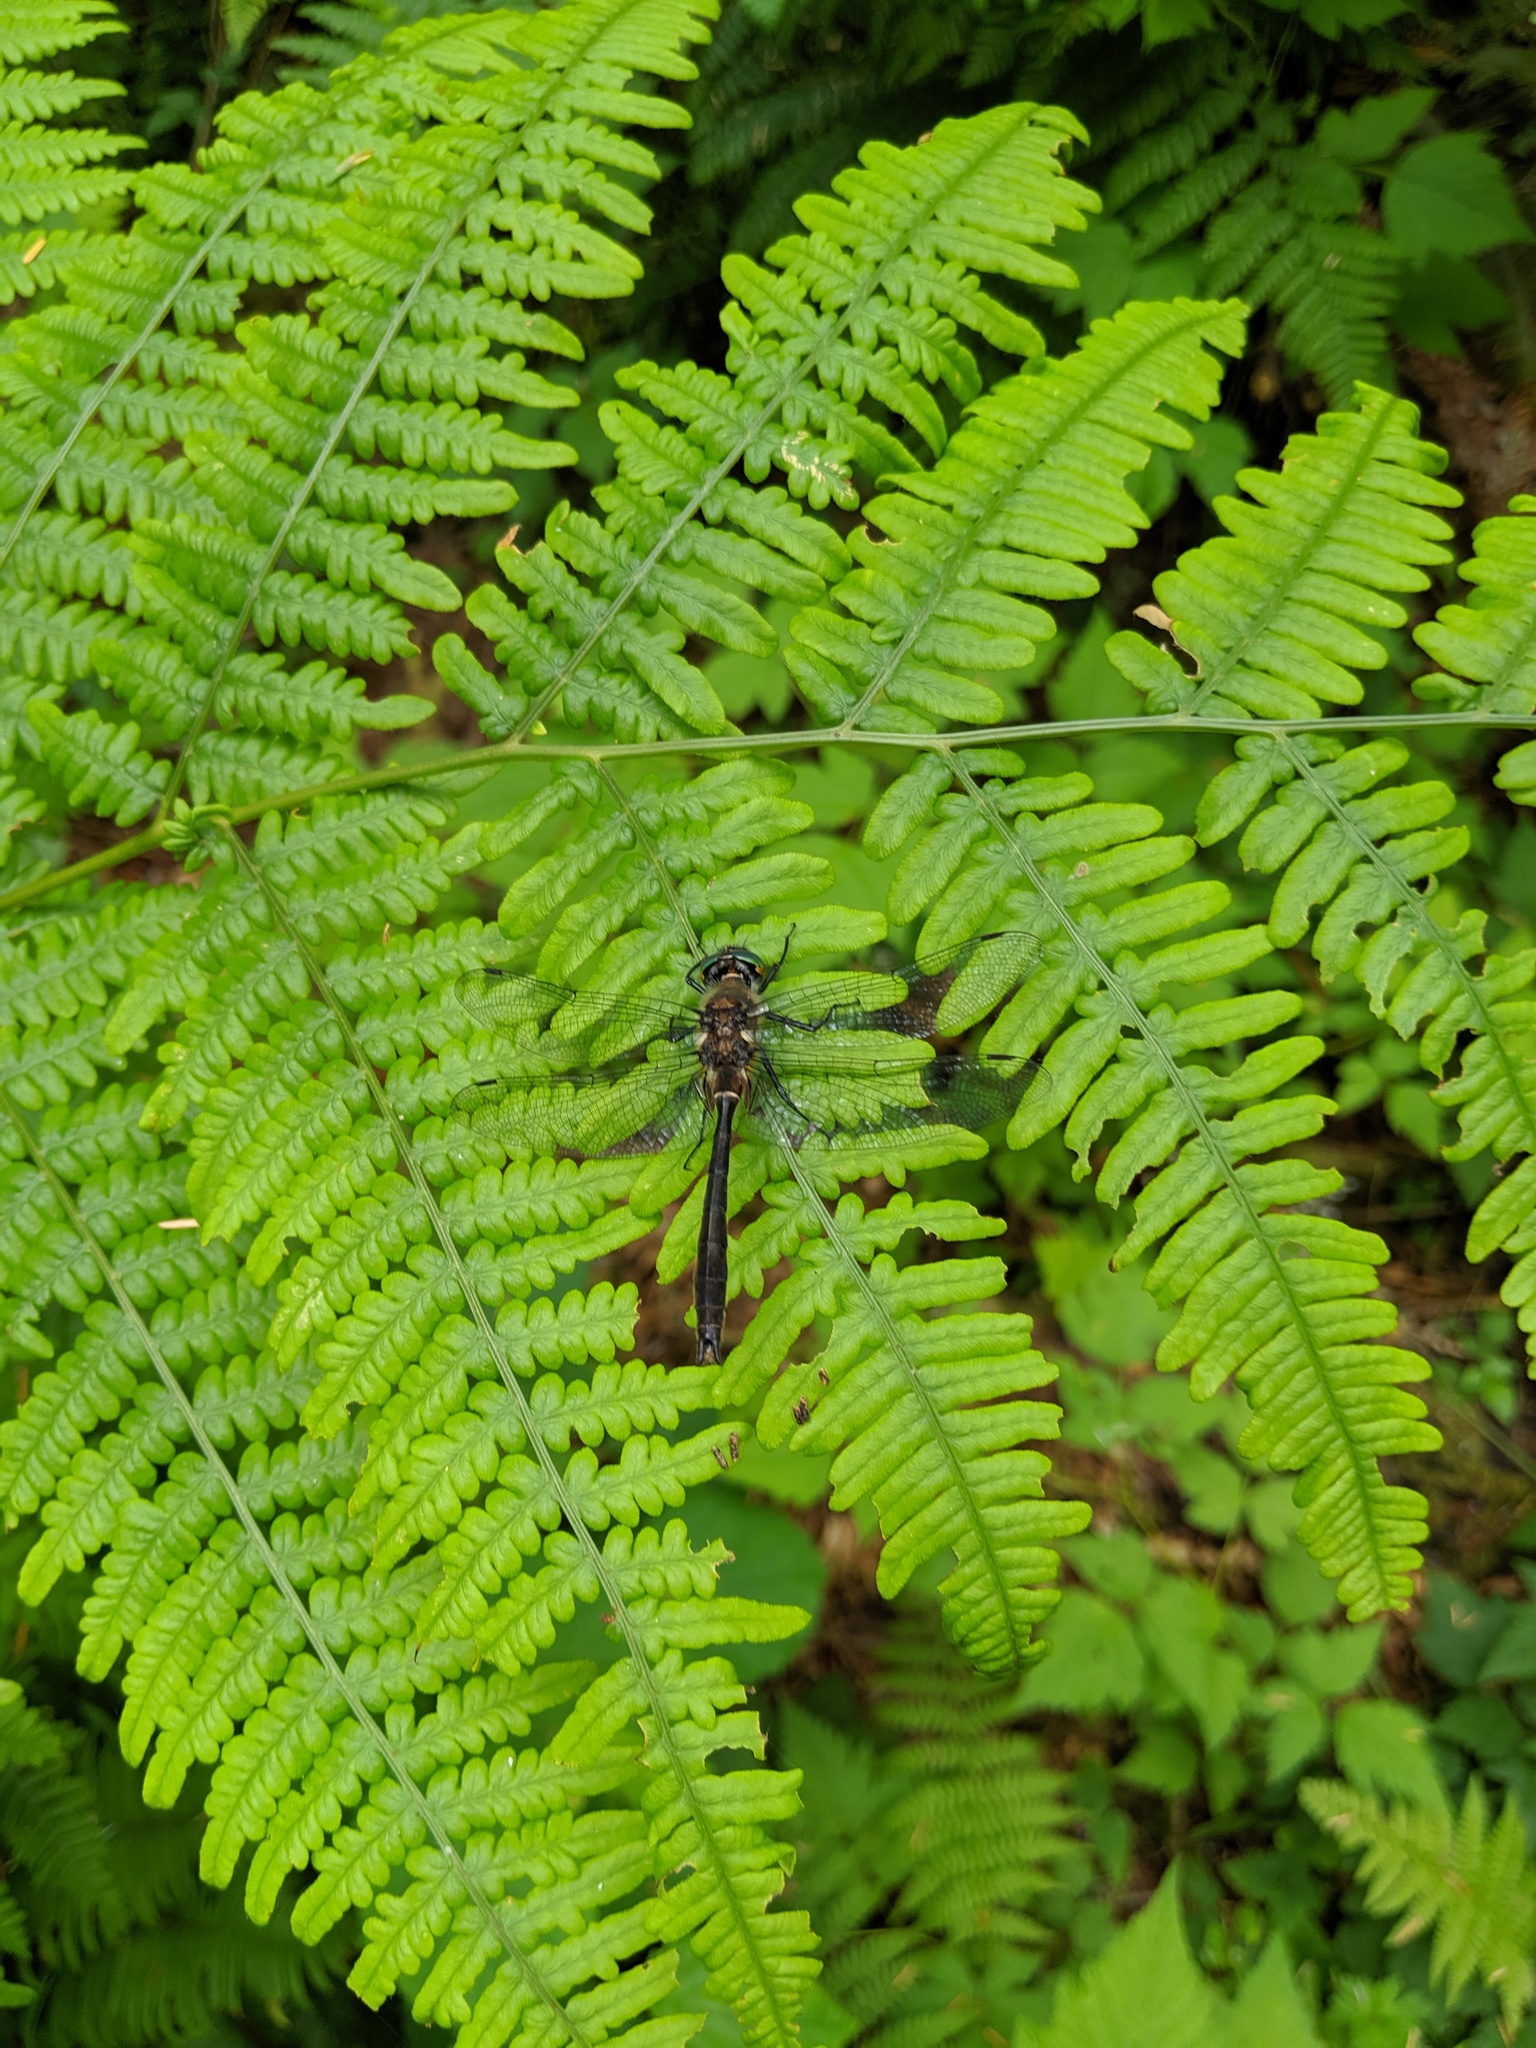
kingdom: Animalia
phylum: Arthropoda
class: Insecta
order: Odonata
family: Corduliidae
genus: Cordulia
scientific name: Cordulia shurtleffii
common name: American emerald
